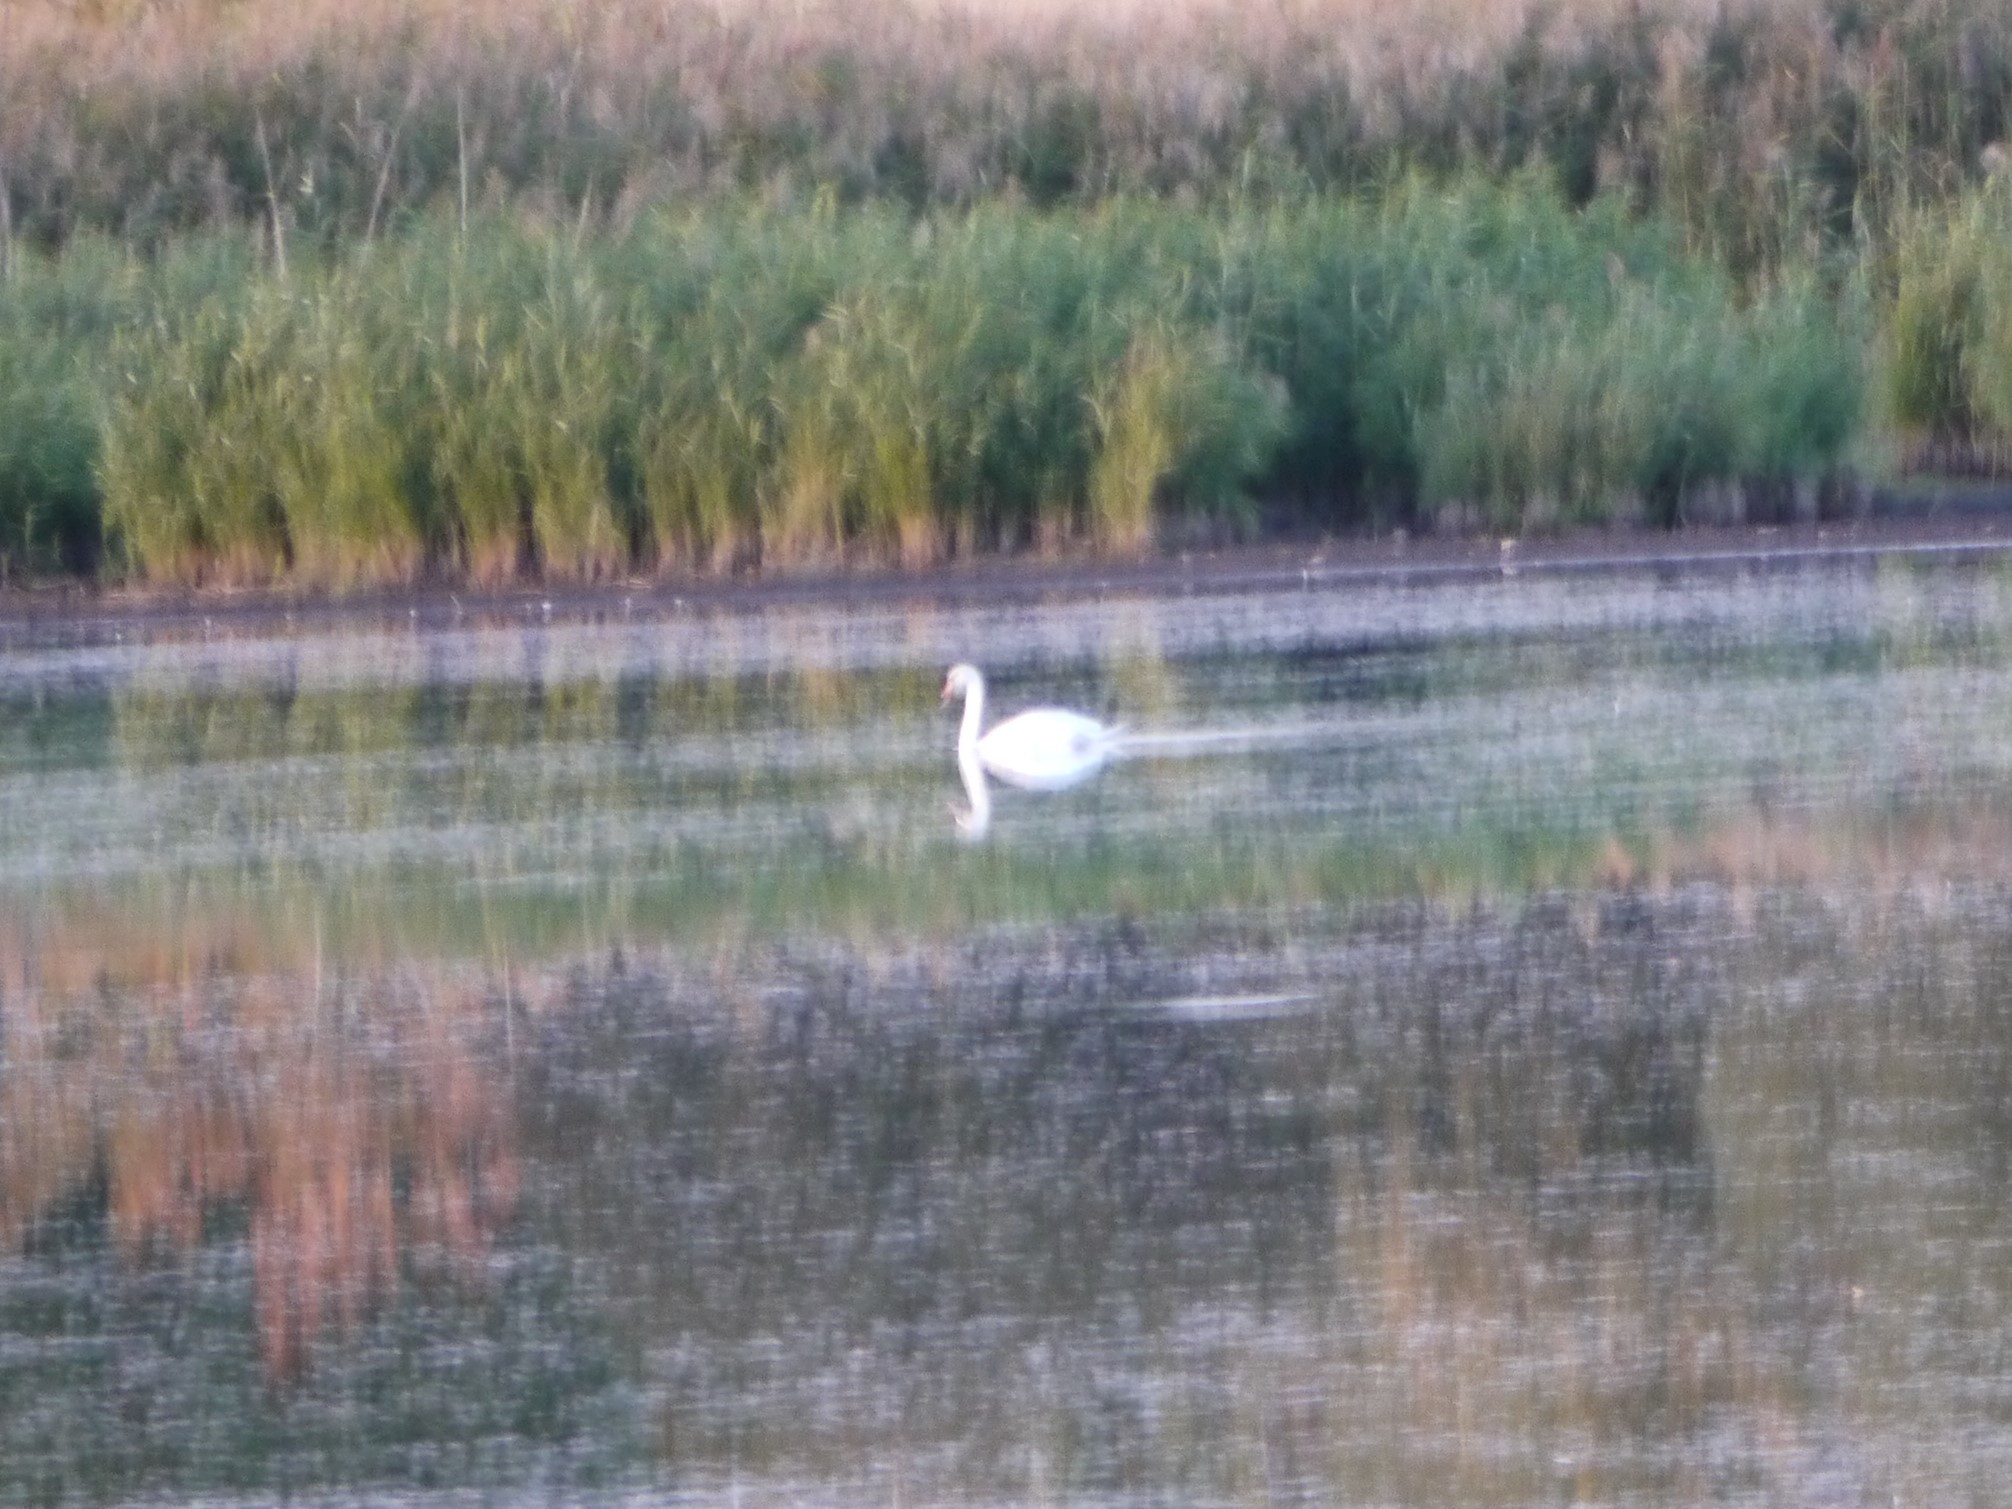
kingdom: Animalia
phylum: Chordata
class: Aves
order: Anseriformes
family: Anatidae
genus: Cygnus
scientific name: Cygnus olor
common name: Mute swan
